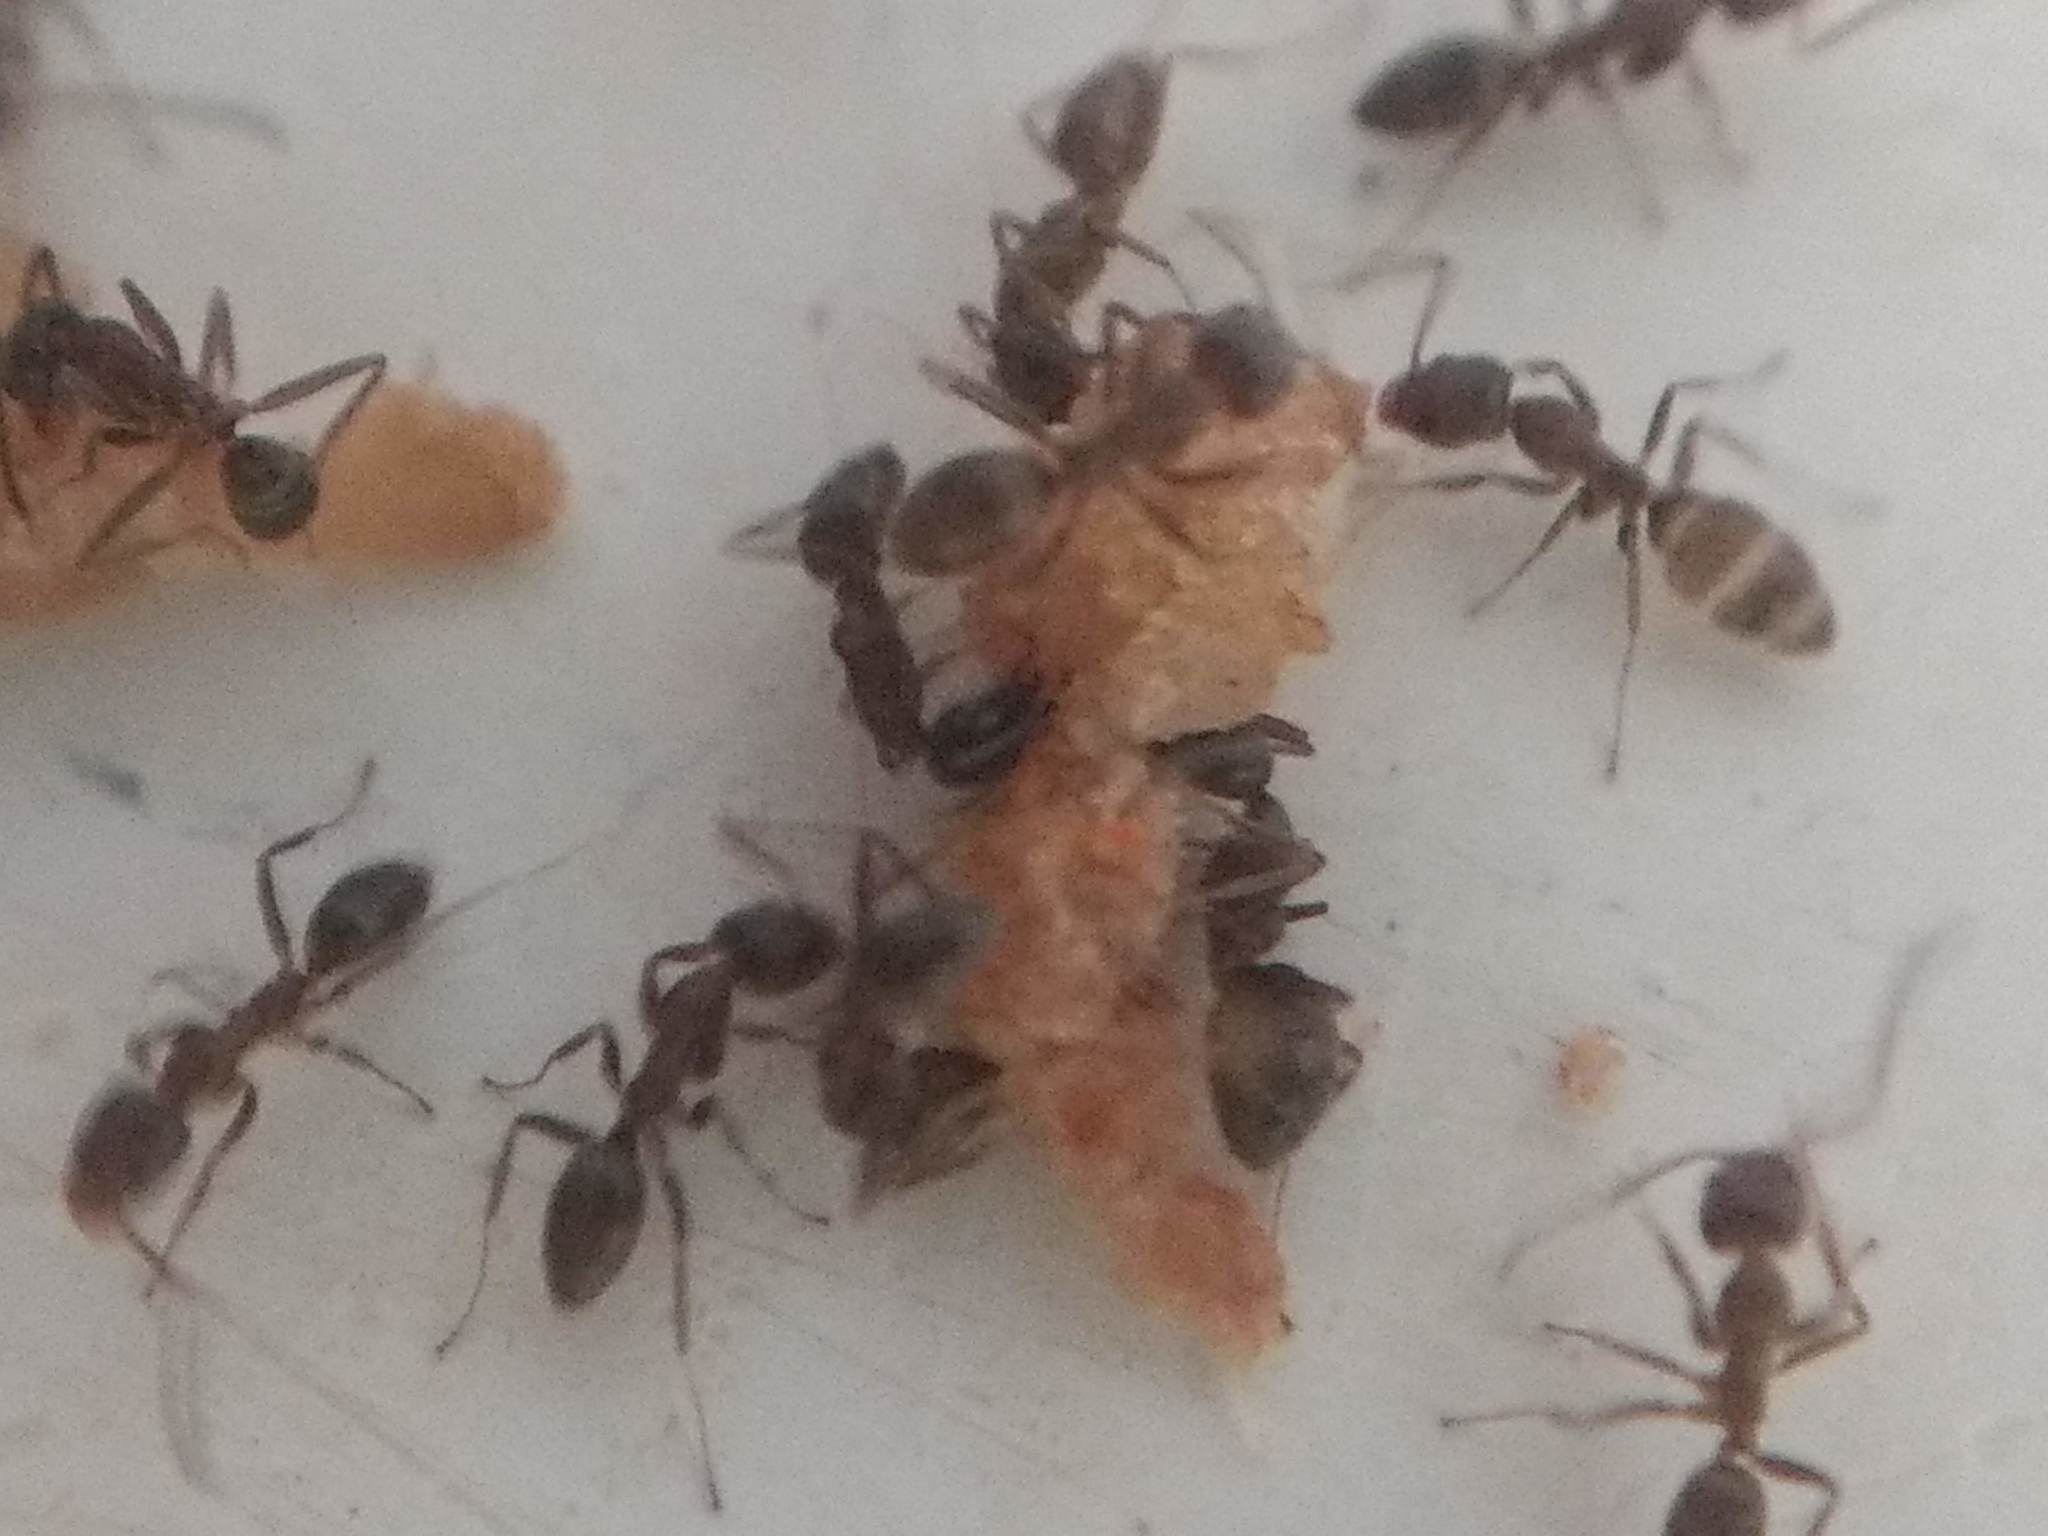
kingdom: Animalia
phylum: Arthropoda
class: Insecta
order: Hymenoptera
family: Formicidae
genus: Linepithema
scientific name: Linepithema humile
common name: Argentine ant
